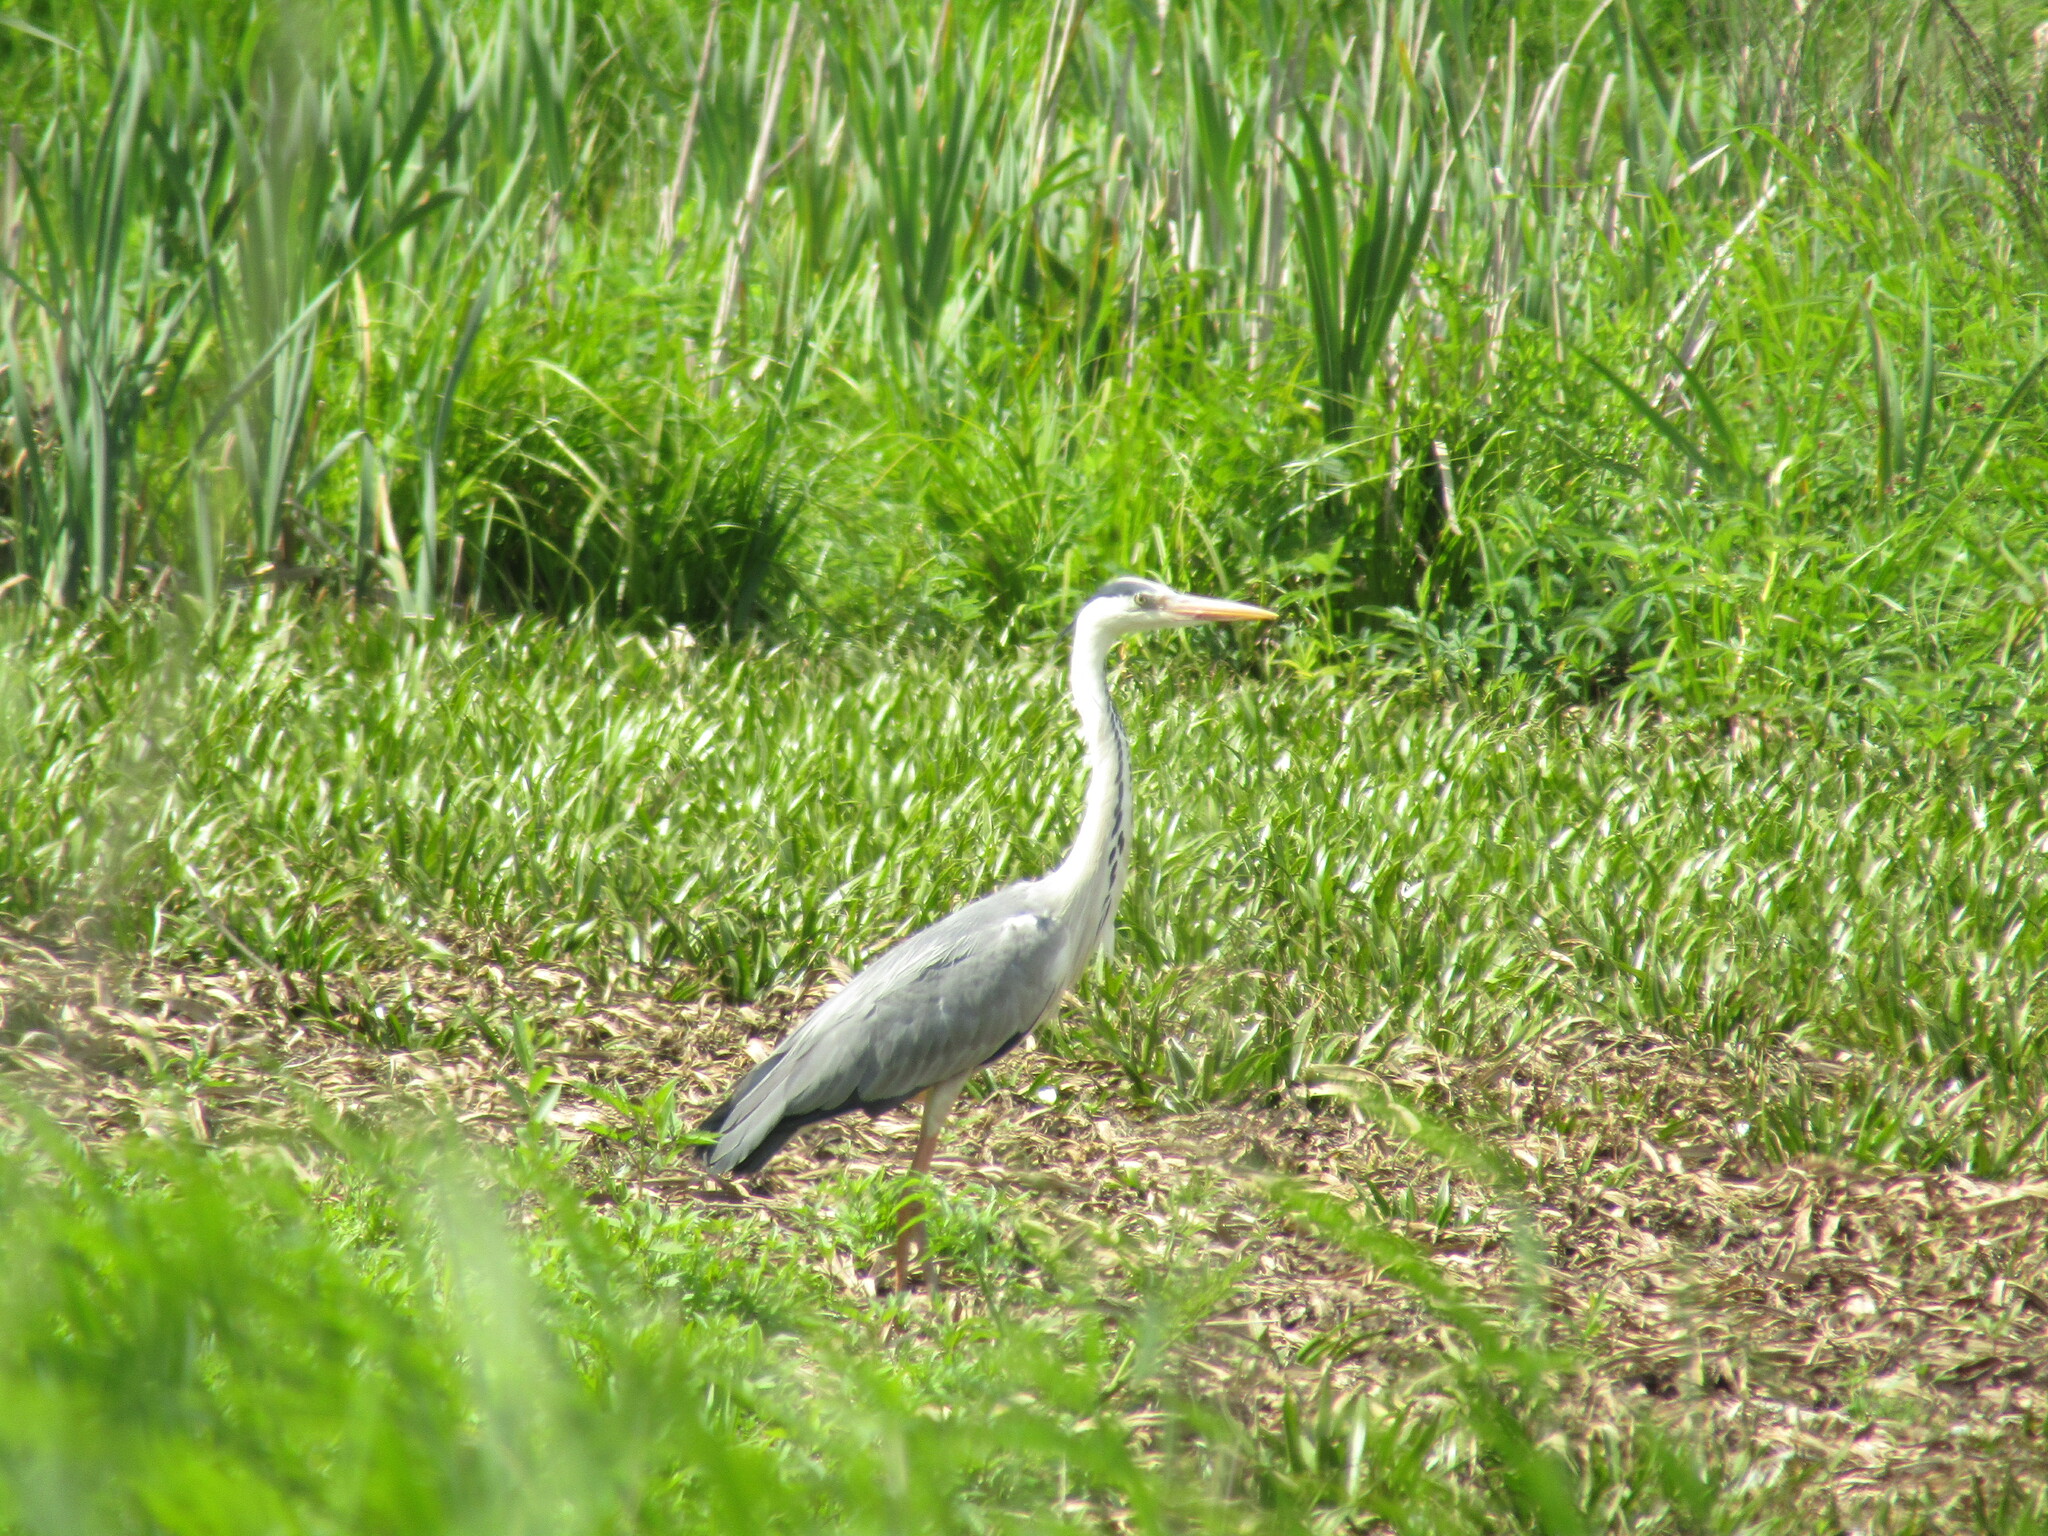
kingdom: Animalia
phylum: Chordata
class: Aves
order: Pelecaniformes
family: Ardeidae
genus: Ardea
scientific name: Ardea cinerea
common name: Grey heron
